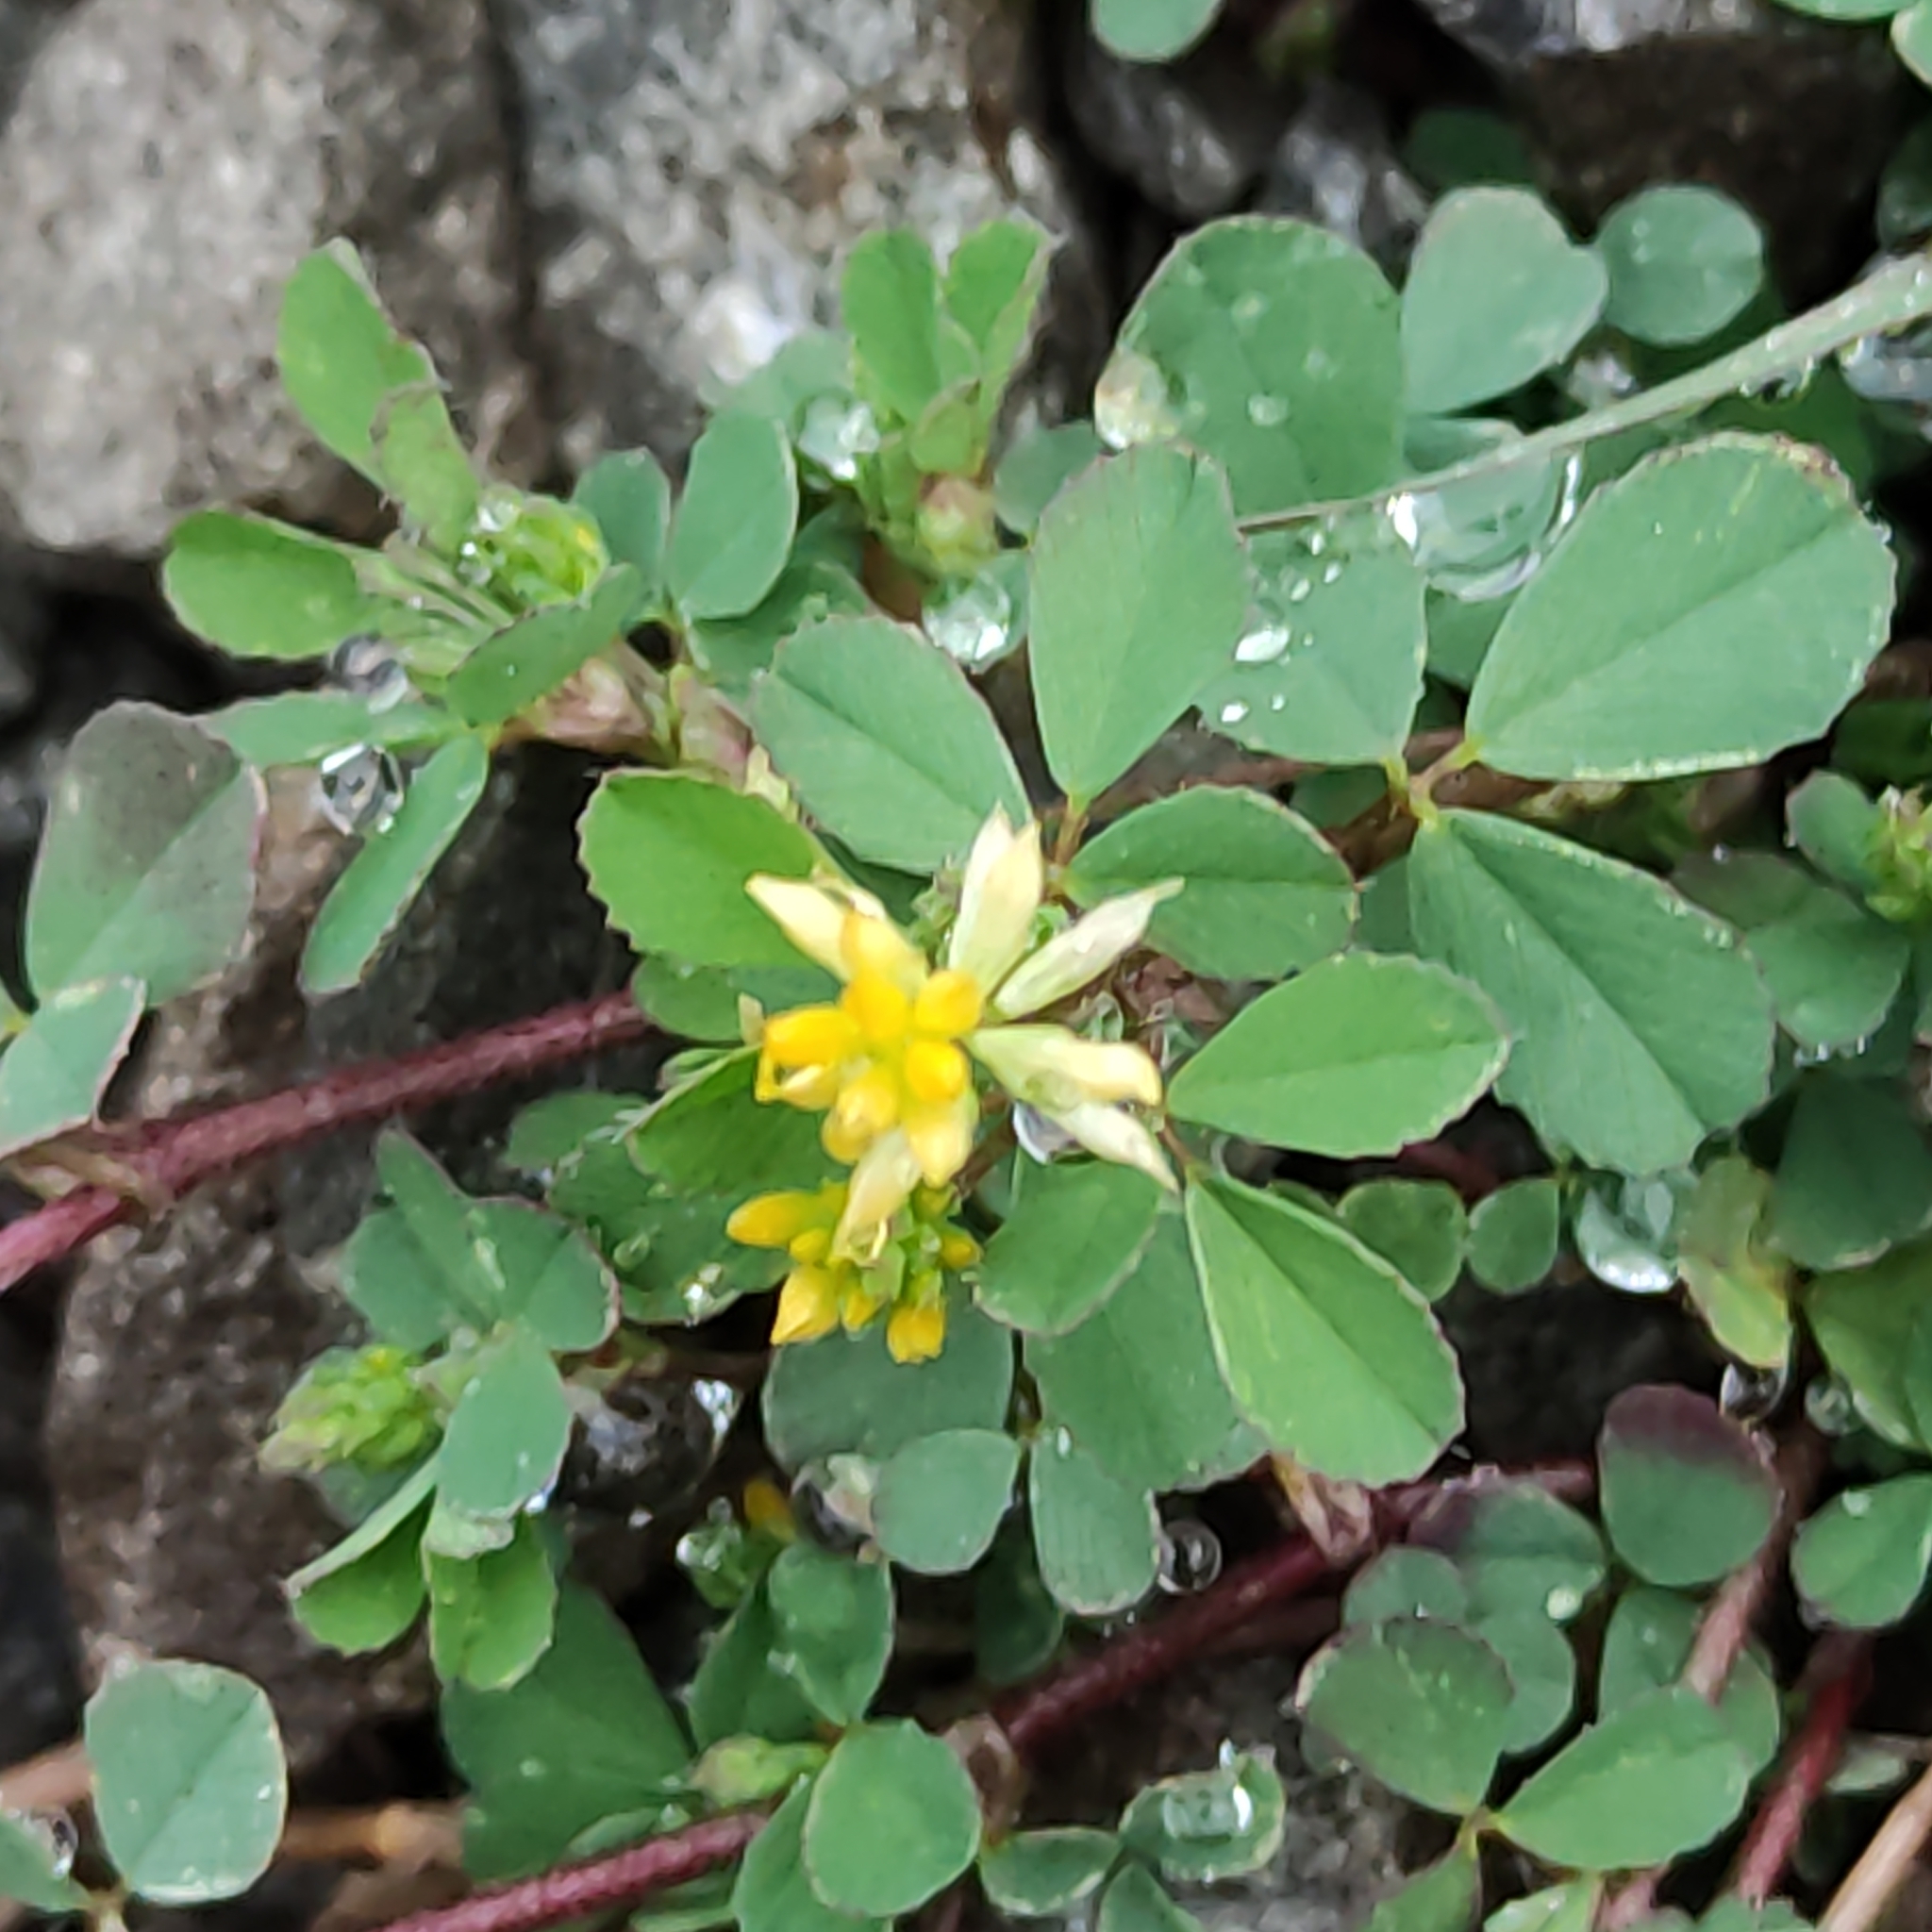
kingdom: Plantae
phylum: Tracheophyta
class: Magnoliopsida
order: Fabales
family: Fabaceae
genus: Trifolium
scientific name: Trifolium dubium
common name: Suckling clover
